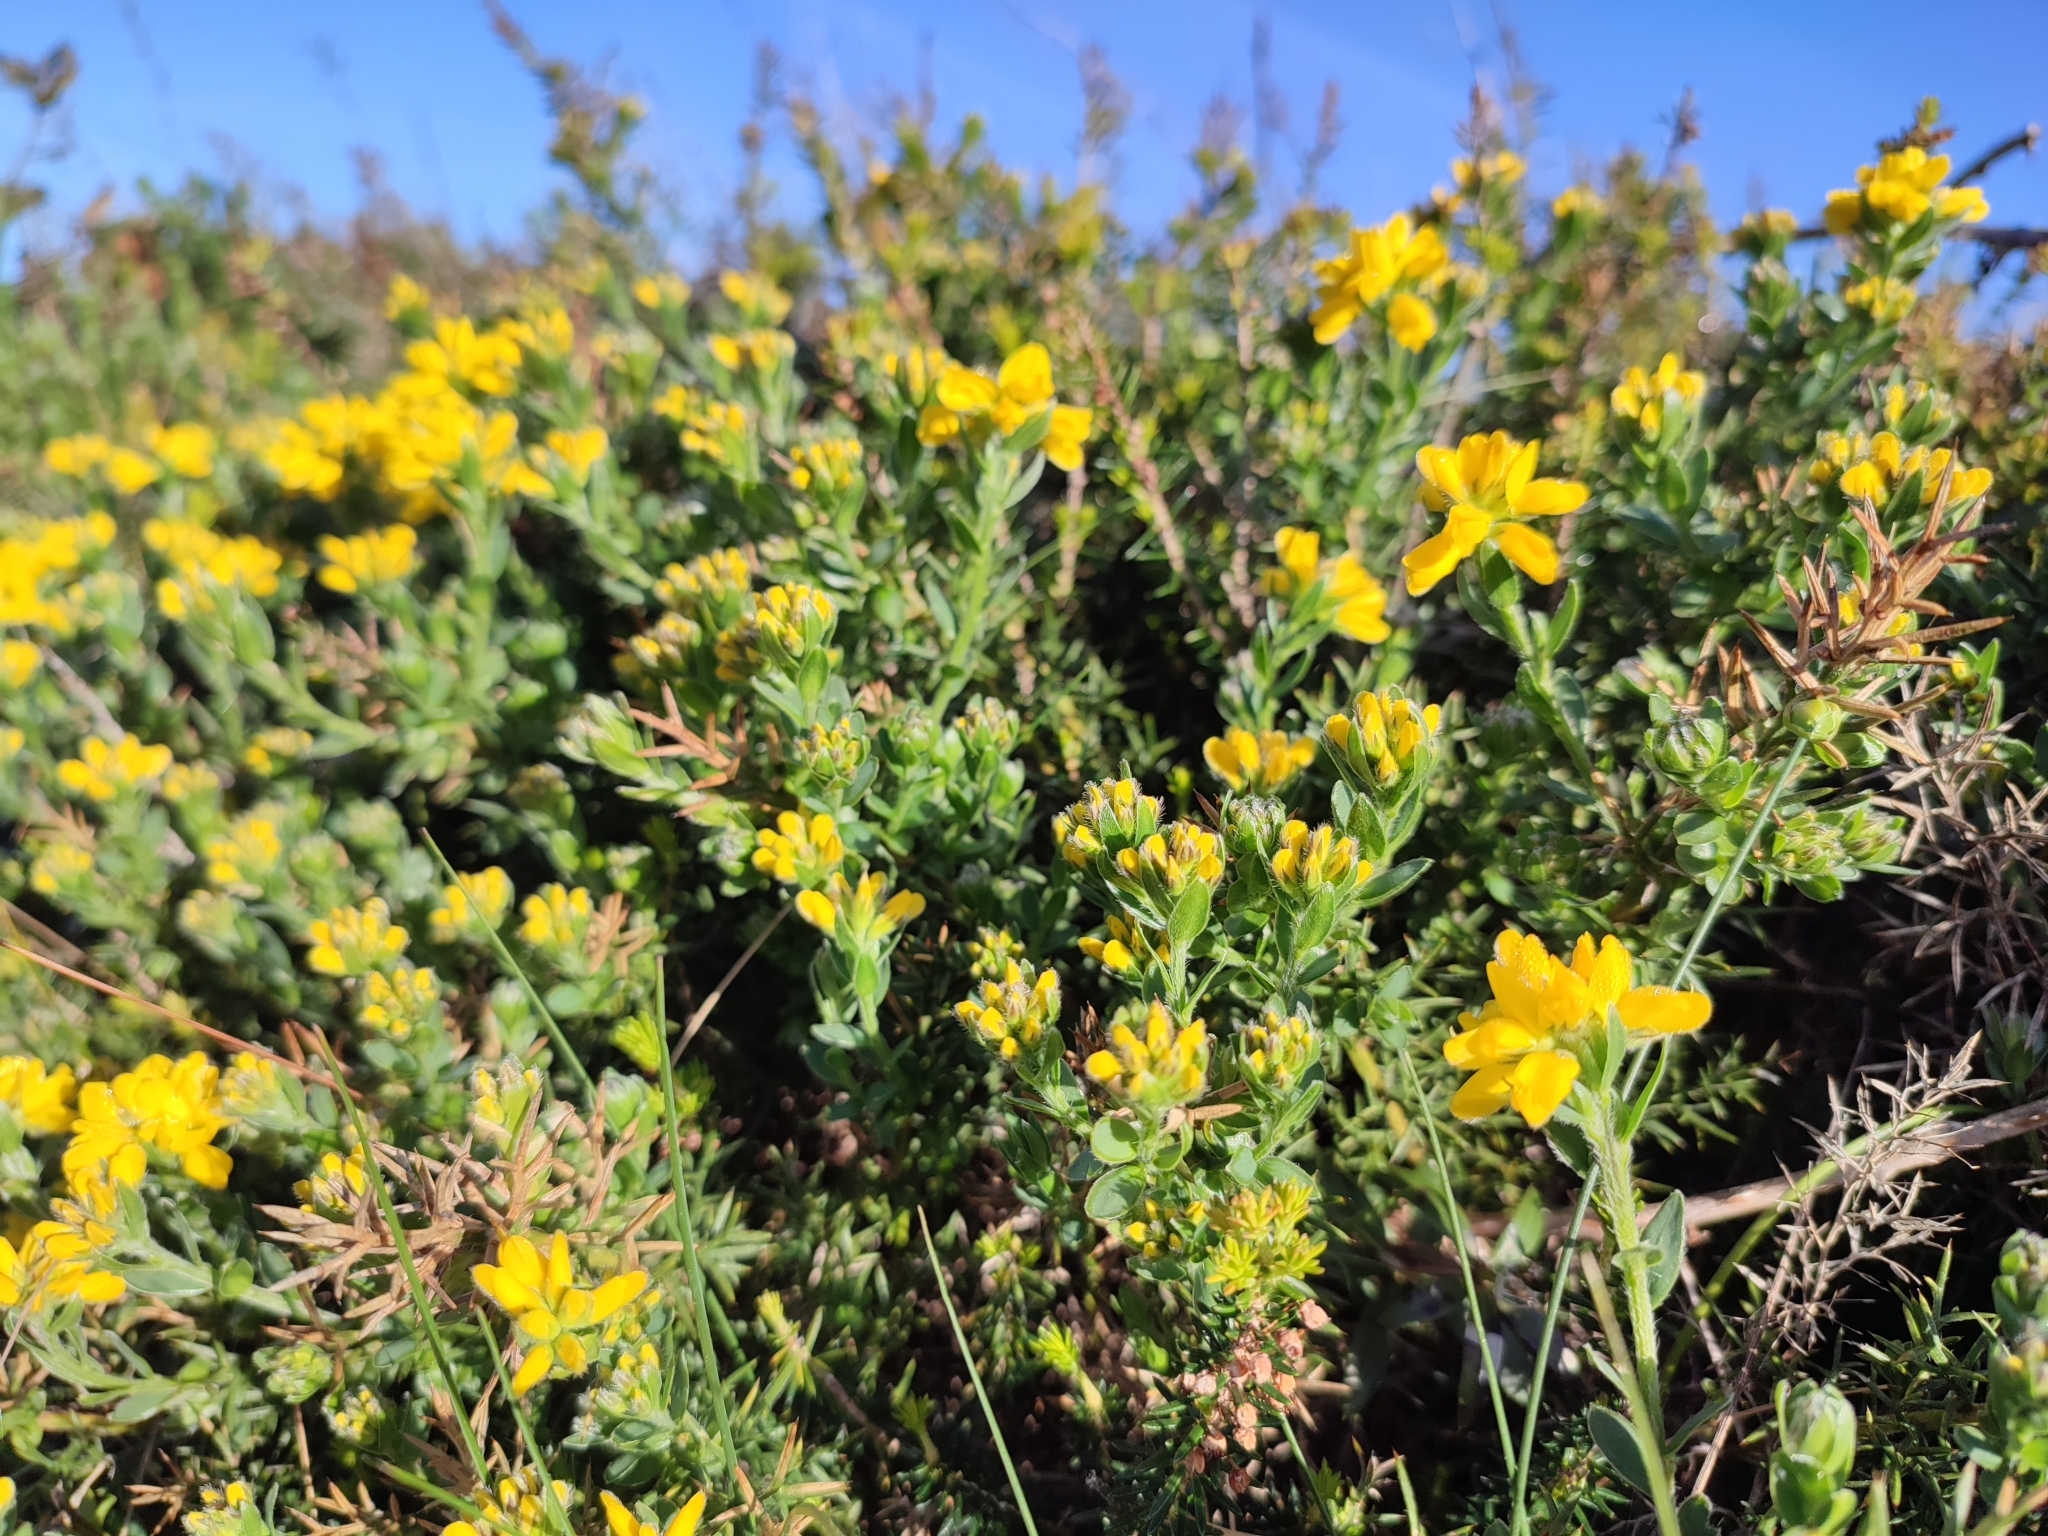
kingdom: Plantae
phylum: Tracheophyta
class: Magnoliopsida
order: Fabales
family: Fabaceae
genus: Genista
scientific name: Genista hispanica
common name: Spanish gorse
